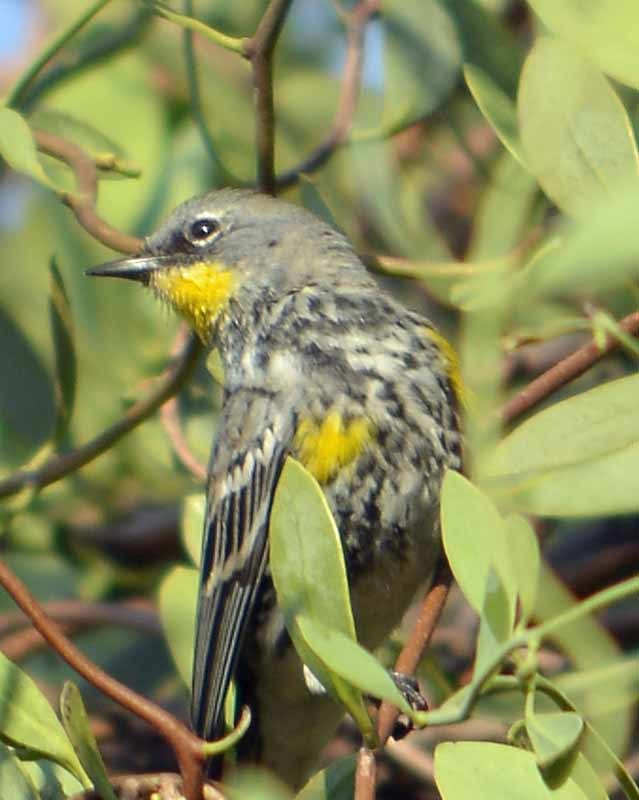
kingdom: Animalia
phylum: Chordata
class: Aves
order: Passeriformes
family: Parulidae
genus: Setophaga
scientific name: Setophaga coronata
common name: Myrtle warbler
